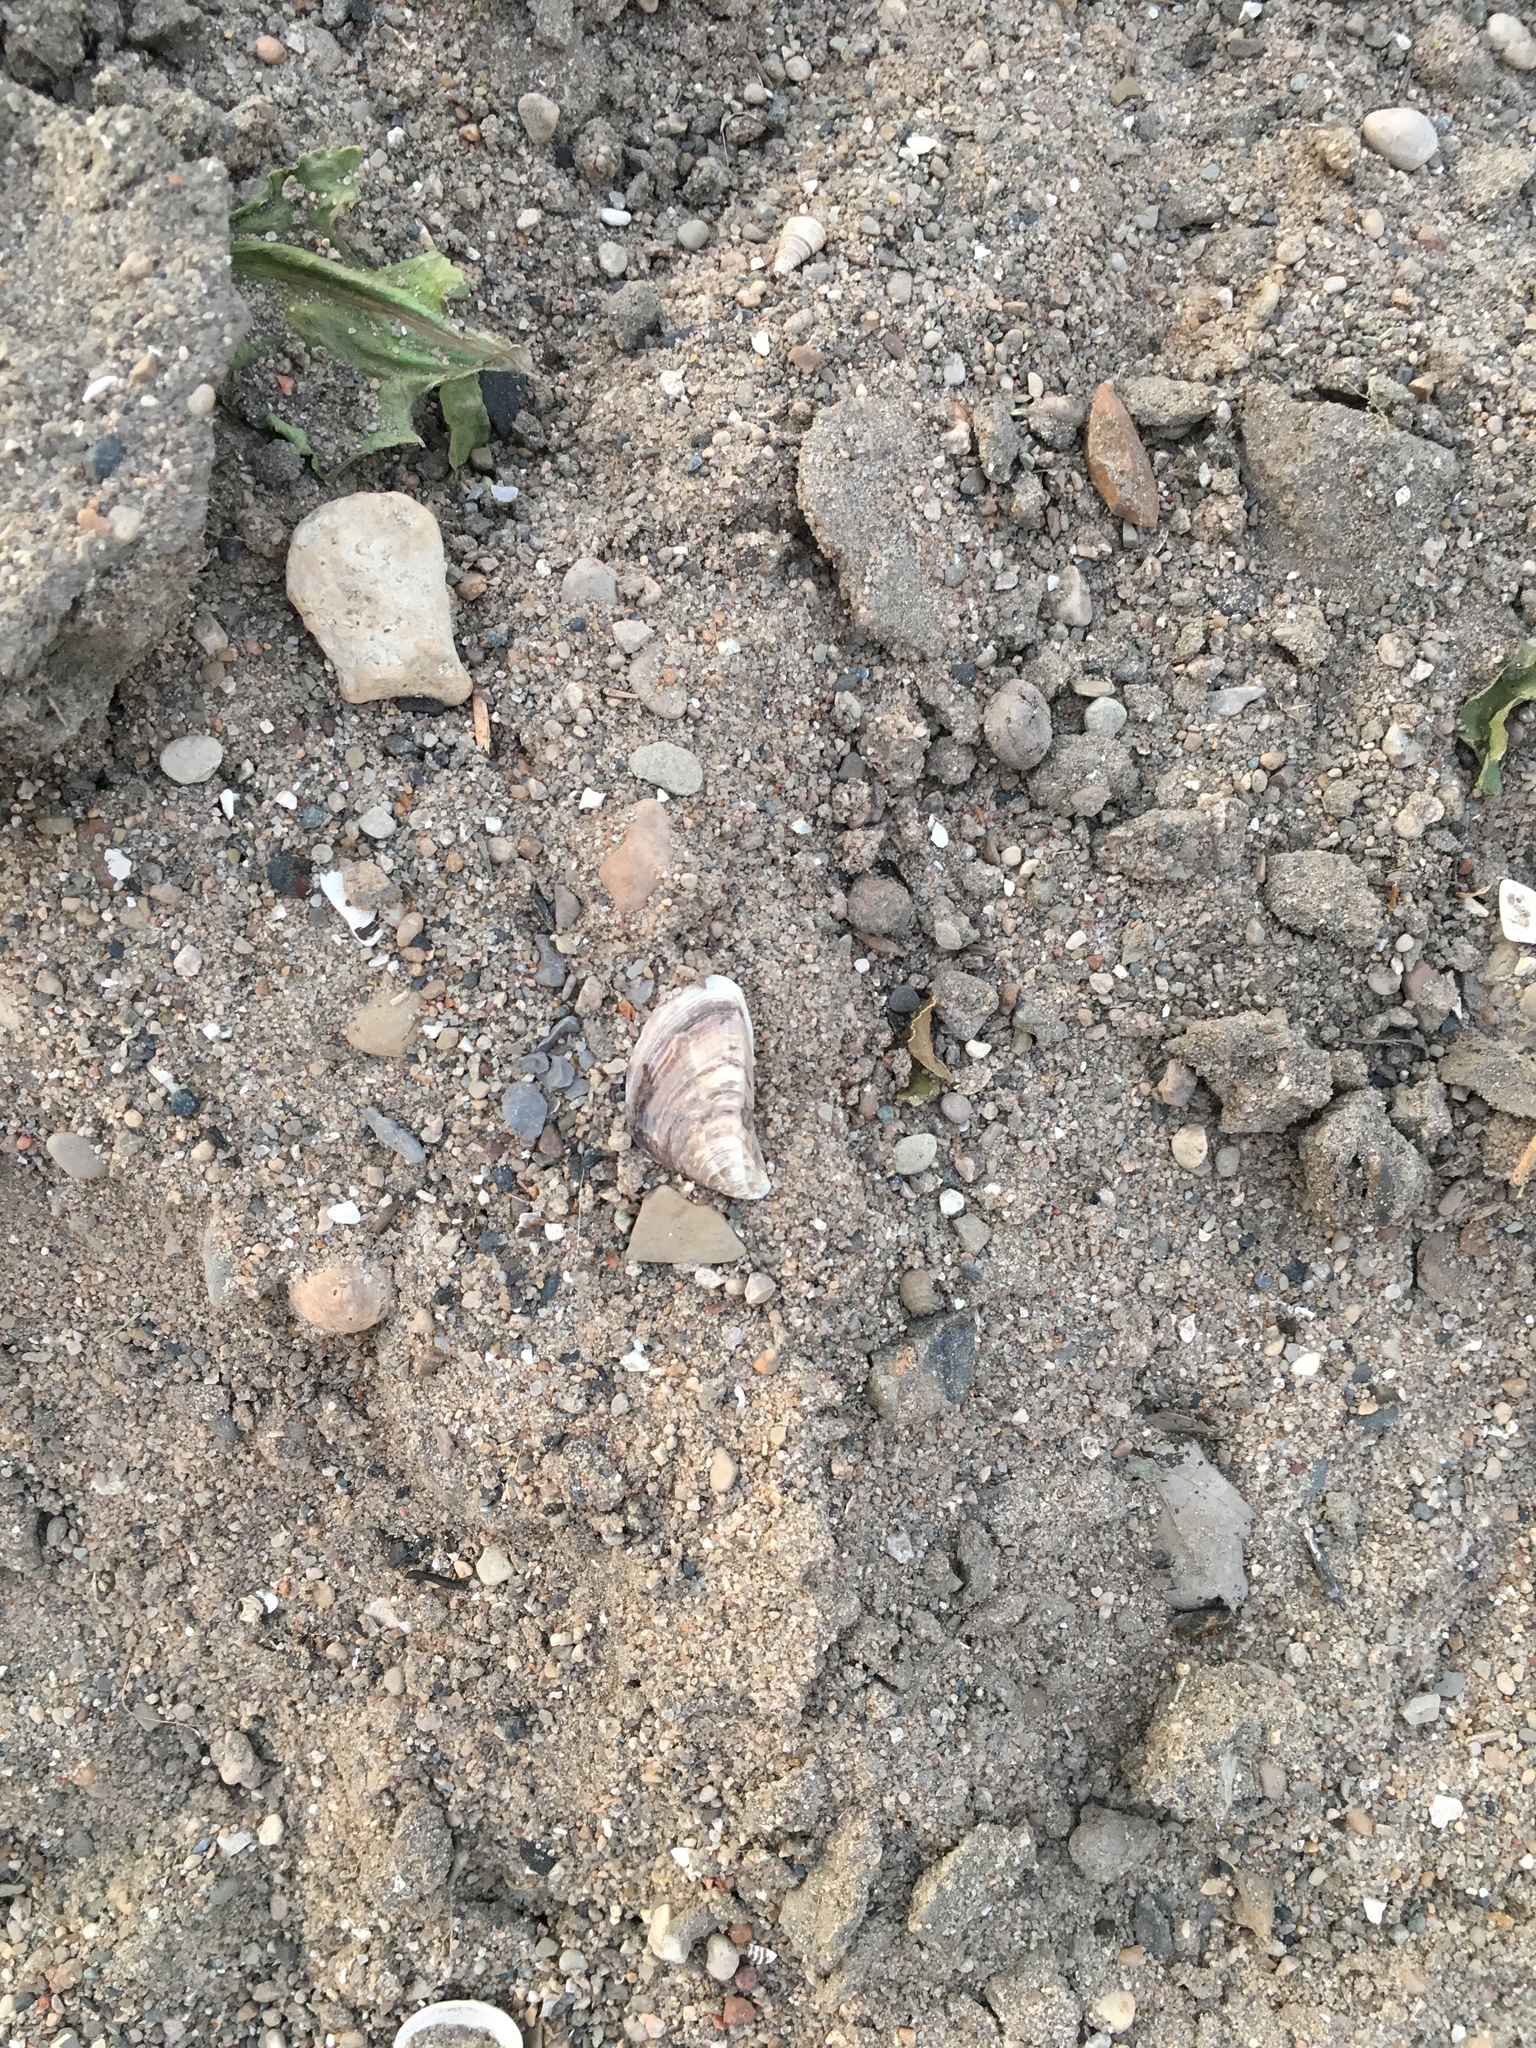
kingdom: Animalia
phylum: Mollusca
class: Bivalvia
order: Myida
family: Dreissenidae
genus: Dreissena
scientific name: Dreissena polymorpha
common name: Zebra mussel
